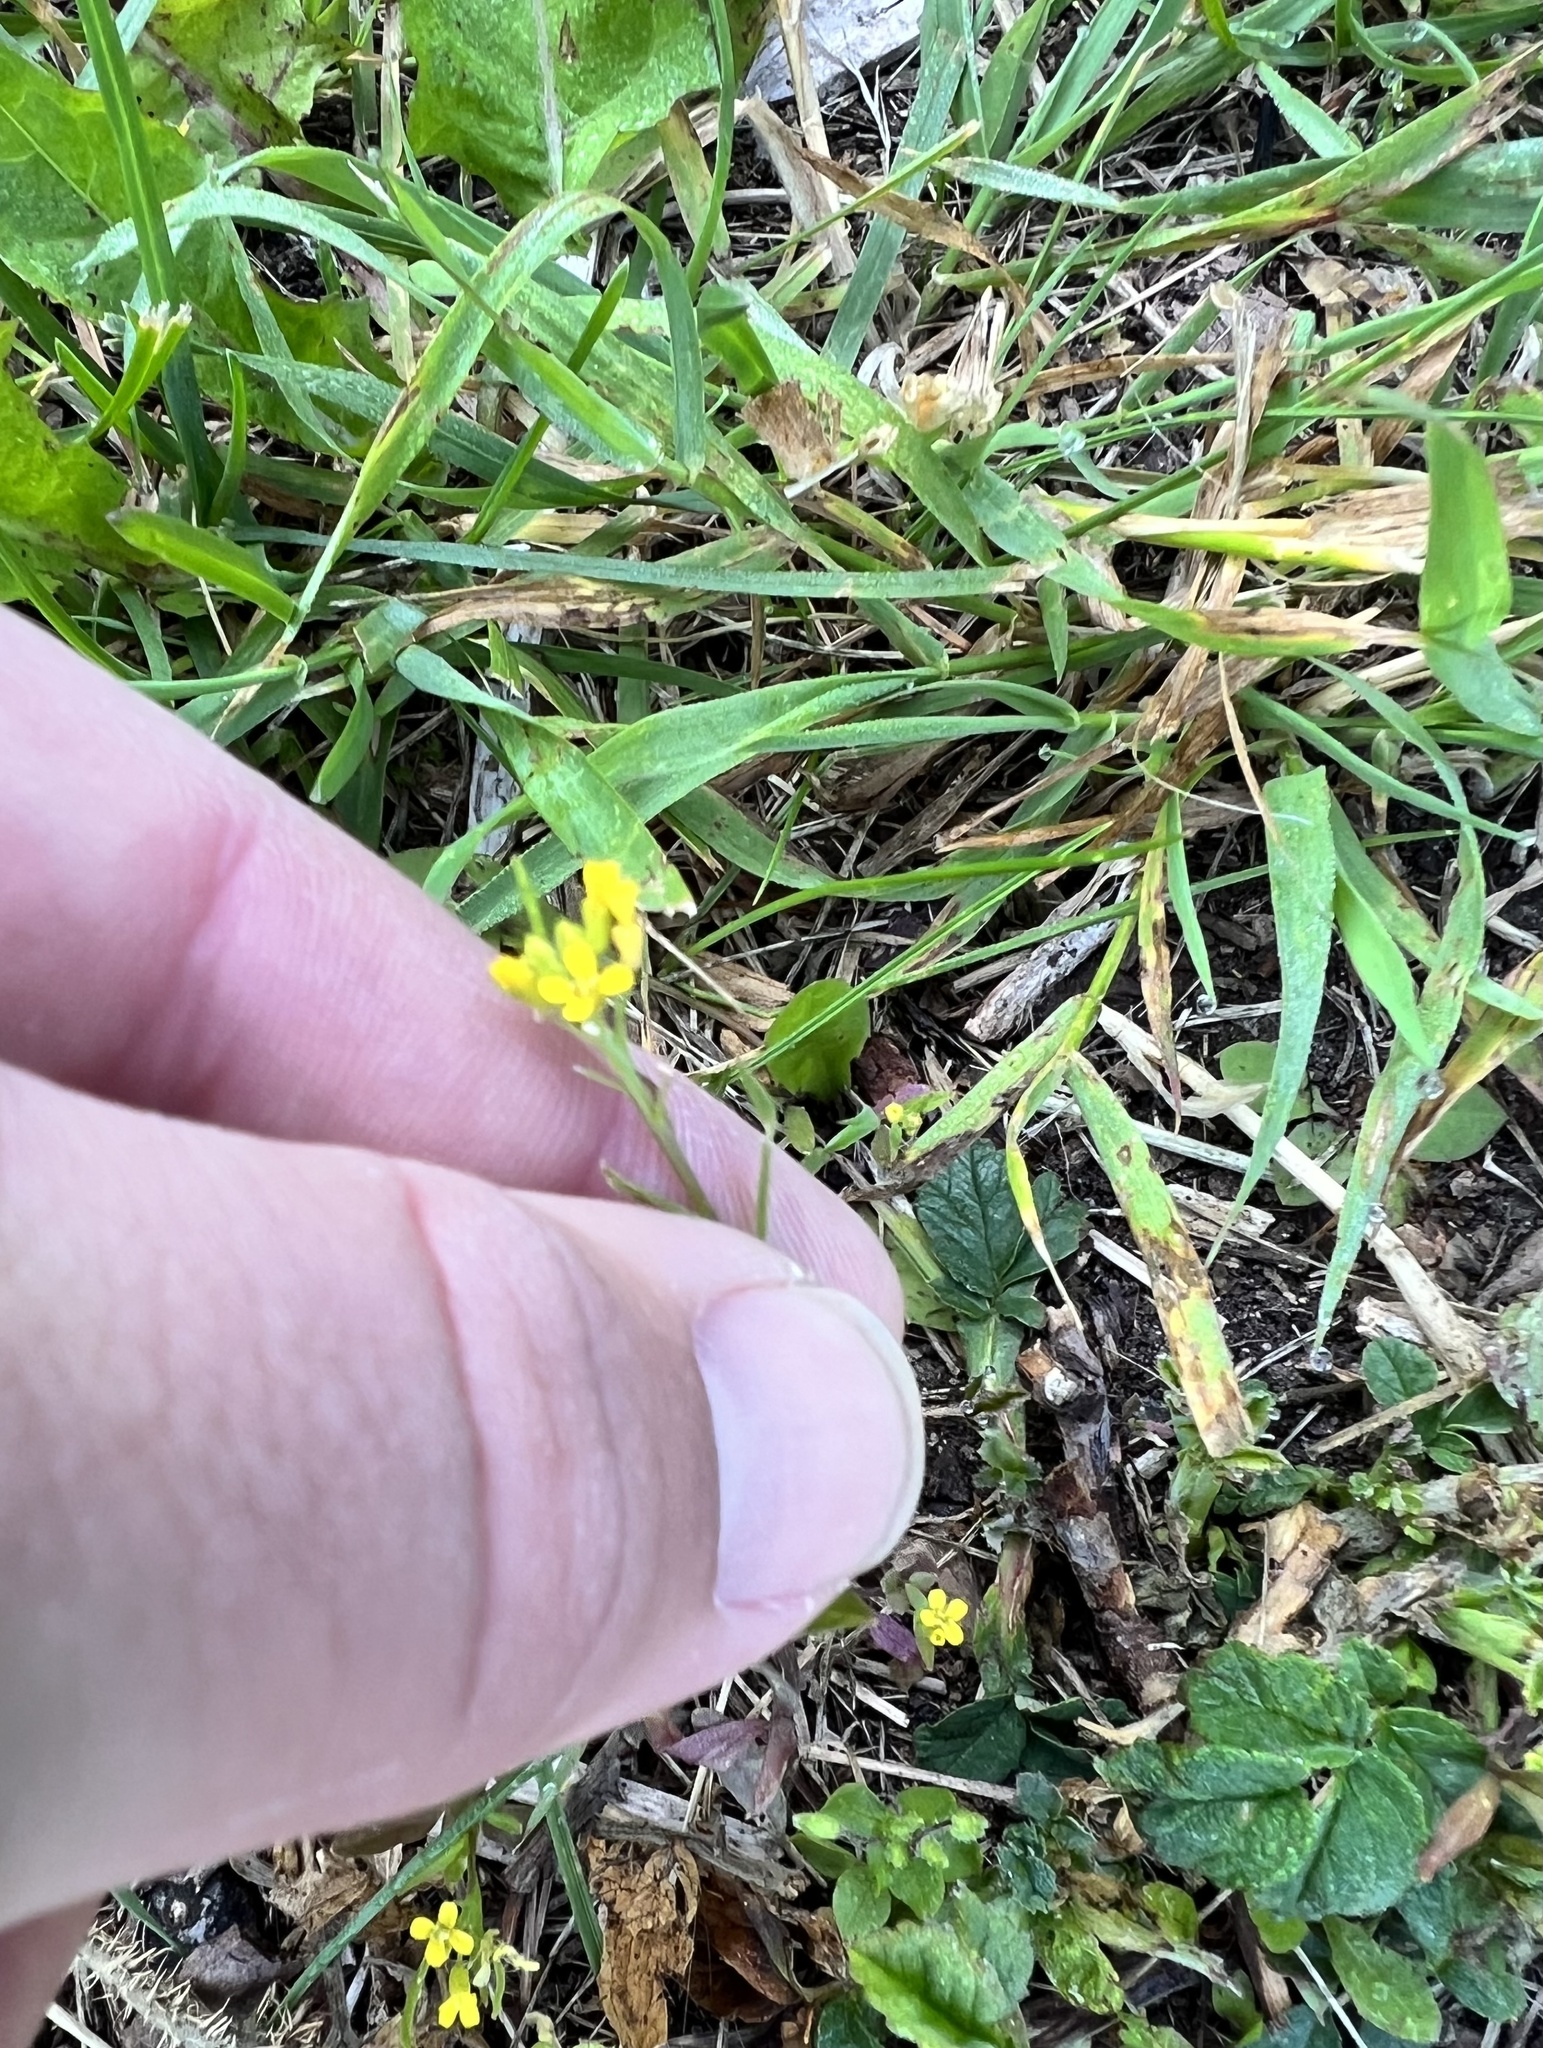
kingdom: Plantae
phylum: Tracheophyta
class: Magnoliopsida
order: Brassicales
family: Brassicaceae
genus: Erysimum
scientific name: Erysimum cheiranthoides
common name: Treacle mustard
